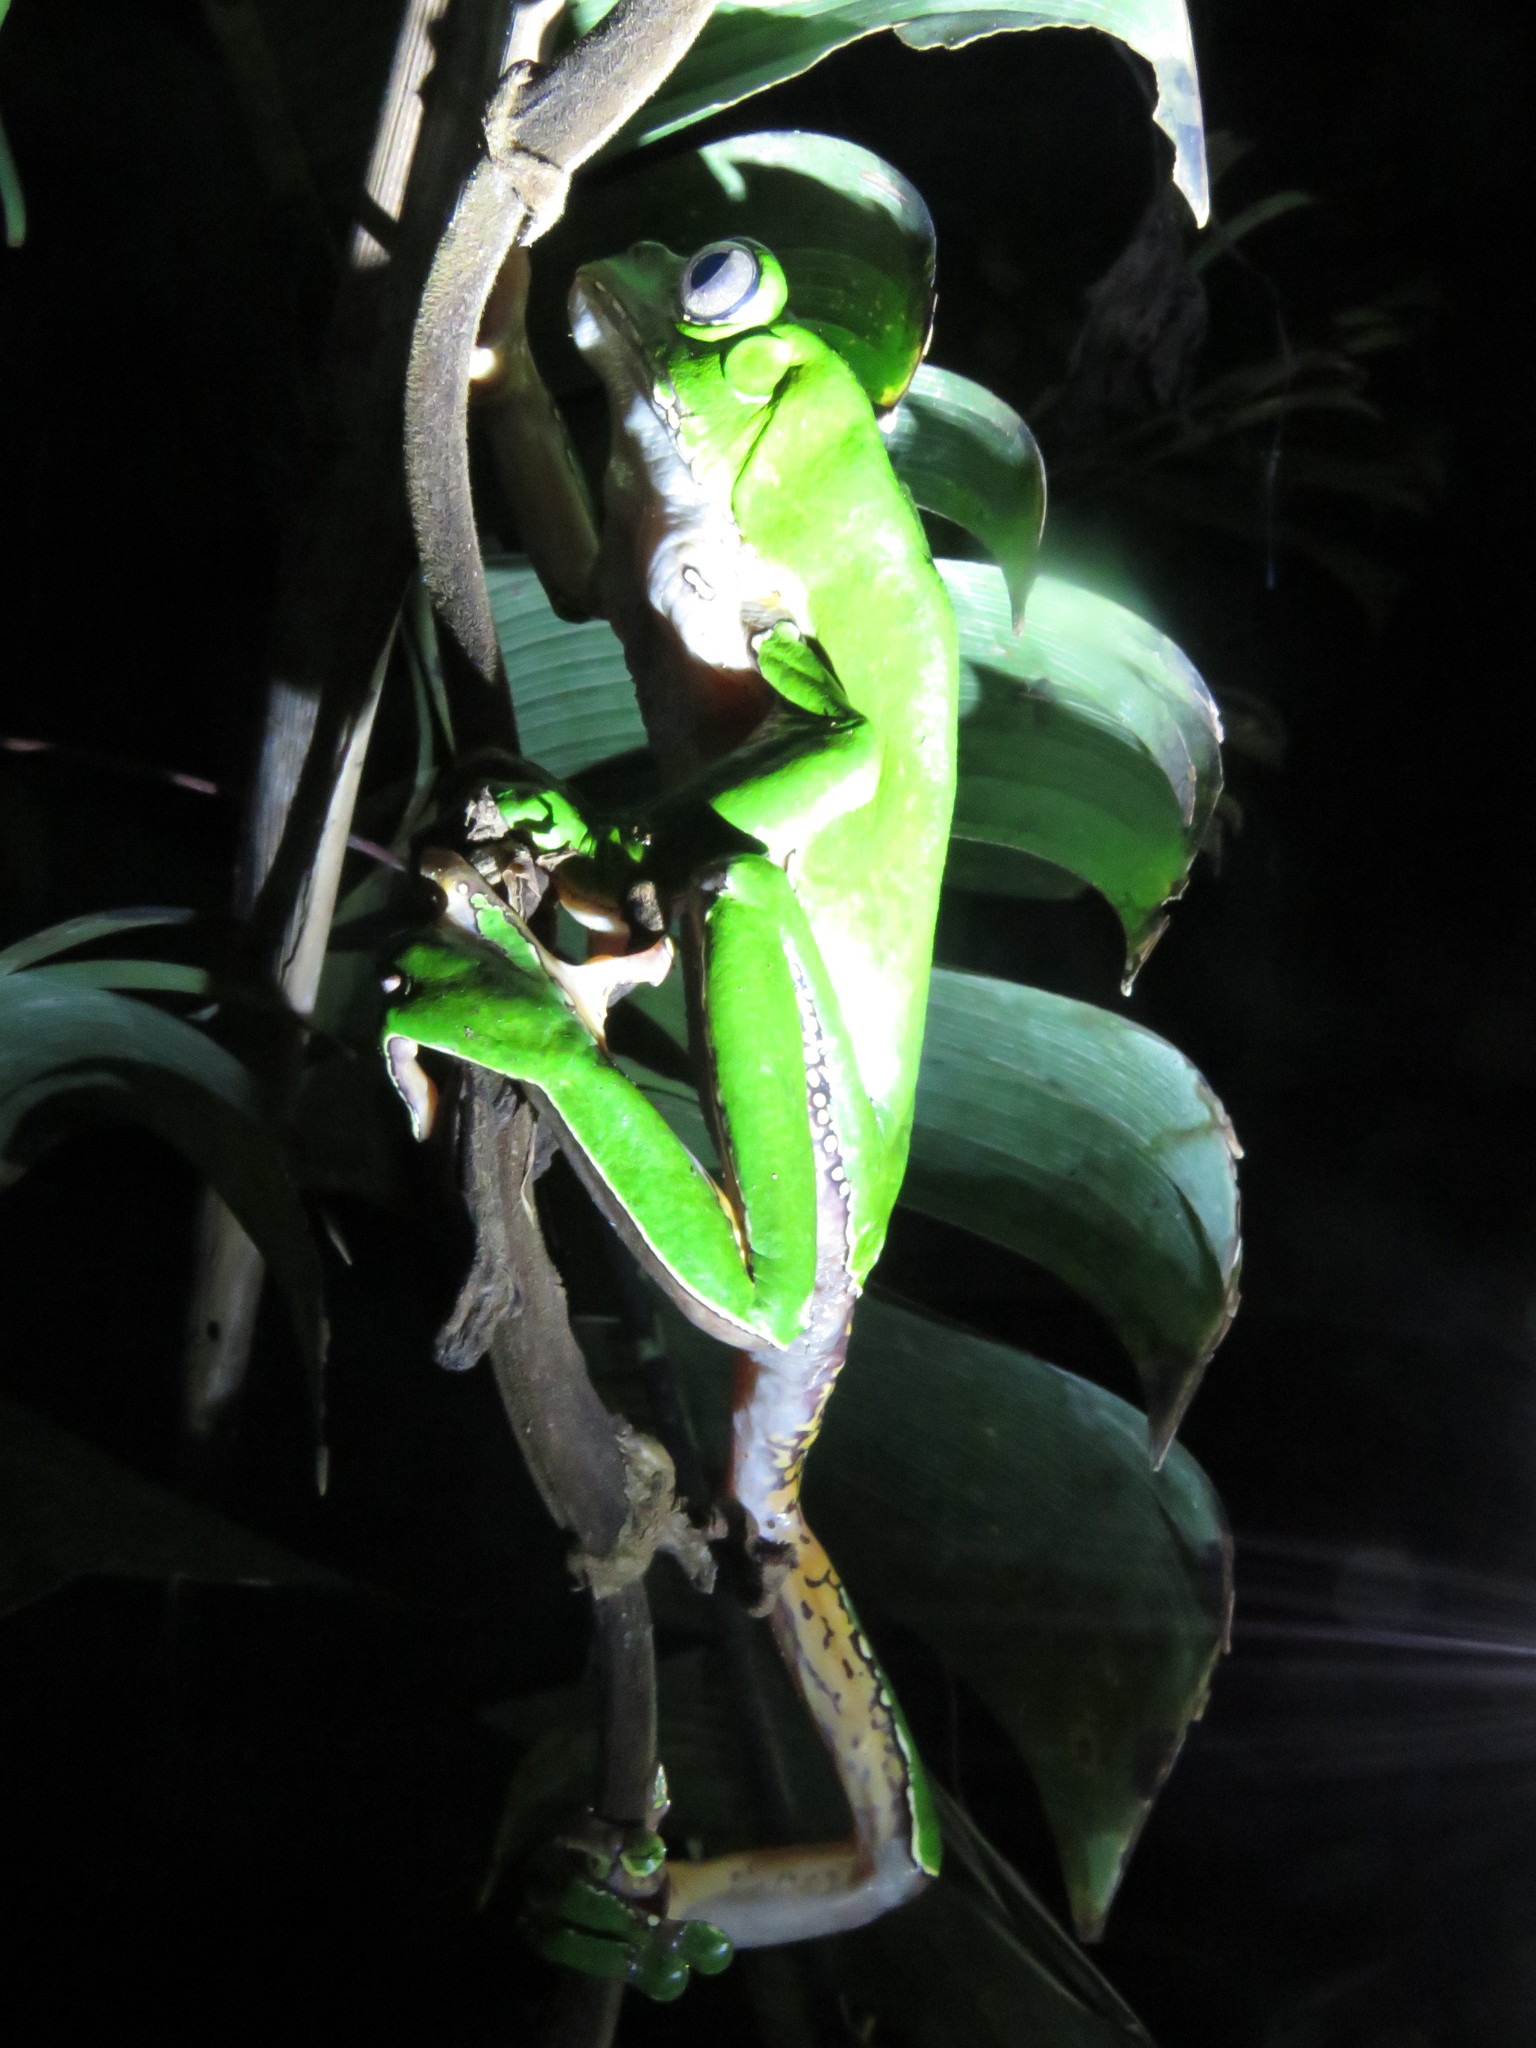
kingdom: Animalia
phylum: Chordata
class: Amphibia
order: Anura
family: Phyllomedusidae
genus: Phyllomedusa
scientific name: Phyllomedusa bicolor
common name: Giant monkey frog
